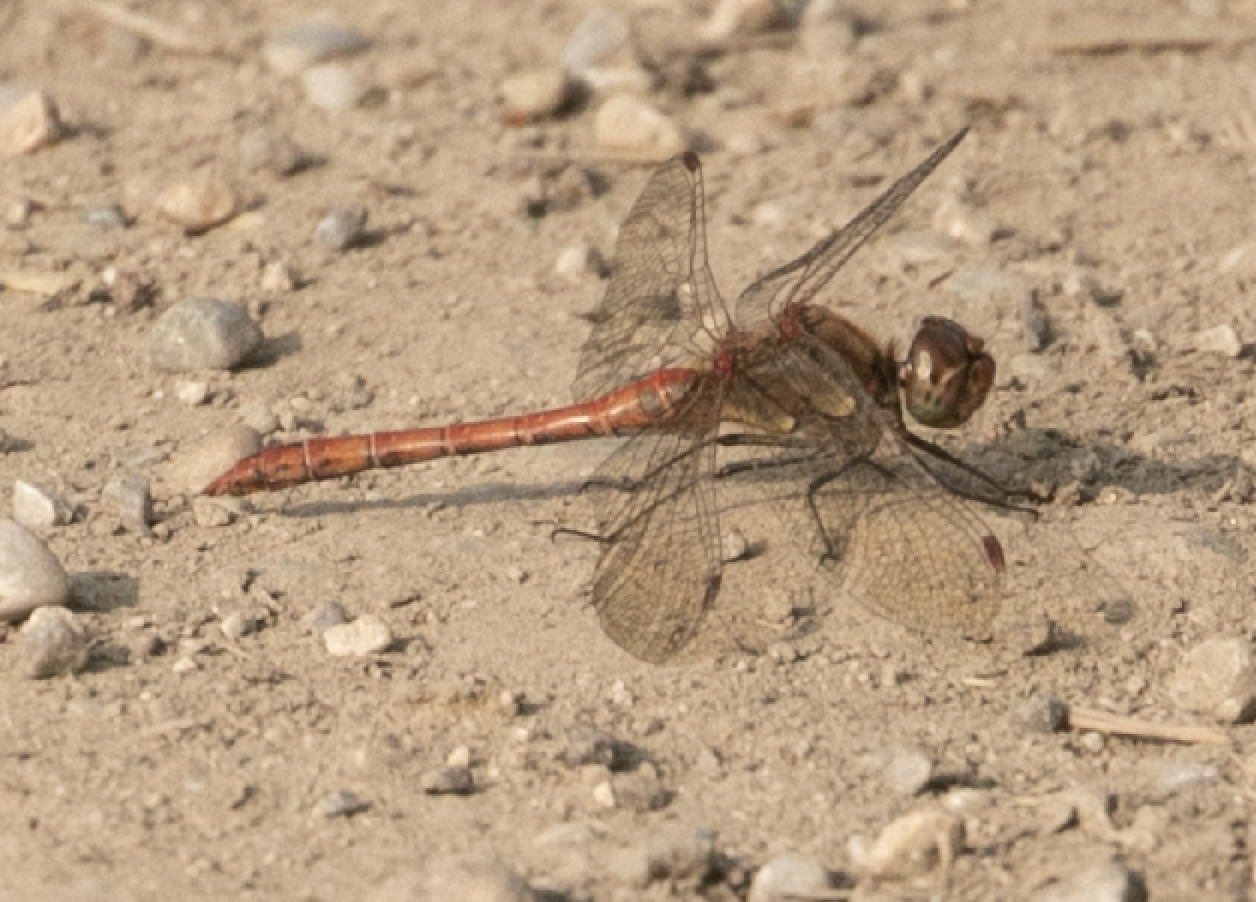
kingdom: Animalia
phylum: Arthropoda
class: Insecta
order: Odonata
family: Libellulidae
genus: Sympetrum
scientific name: Sympetrum striolatum
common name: Common darter
